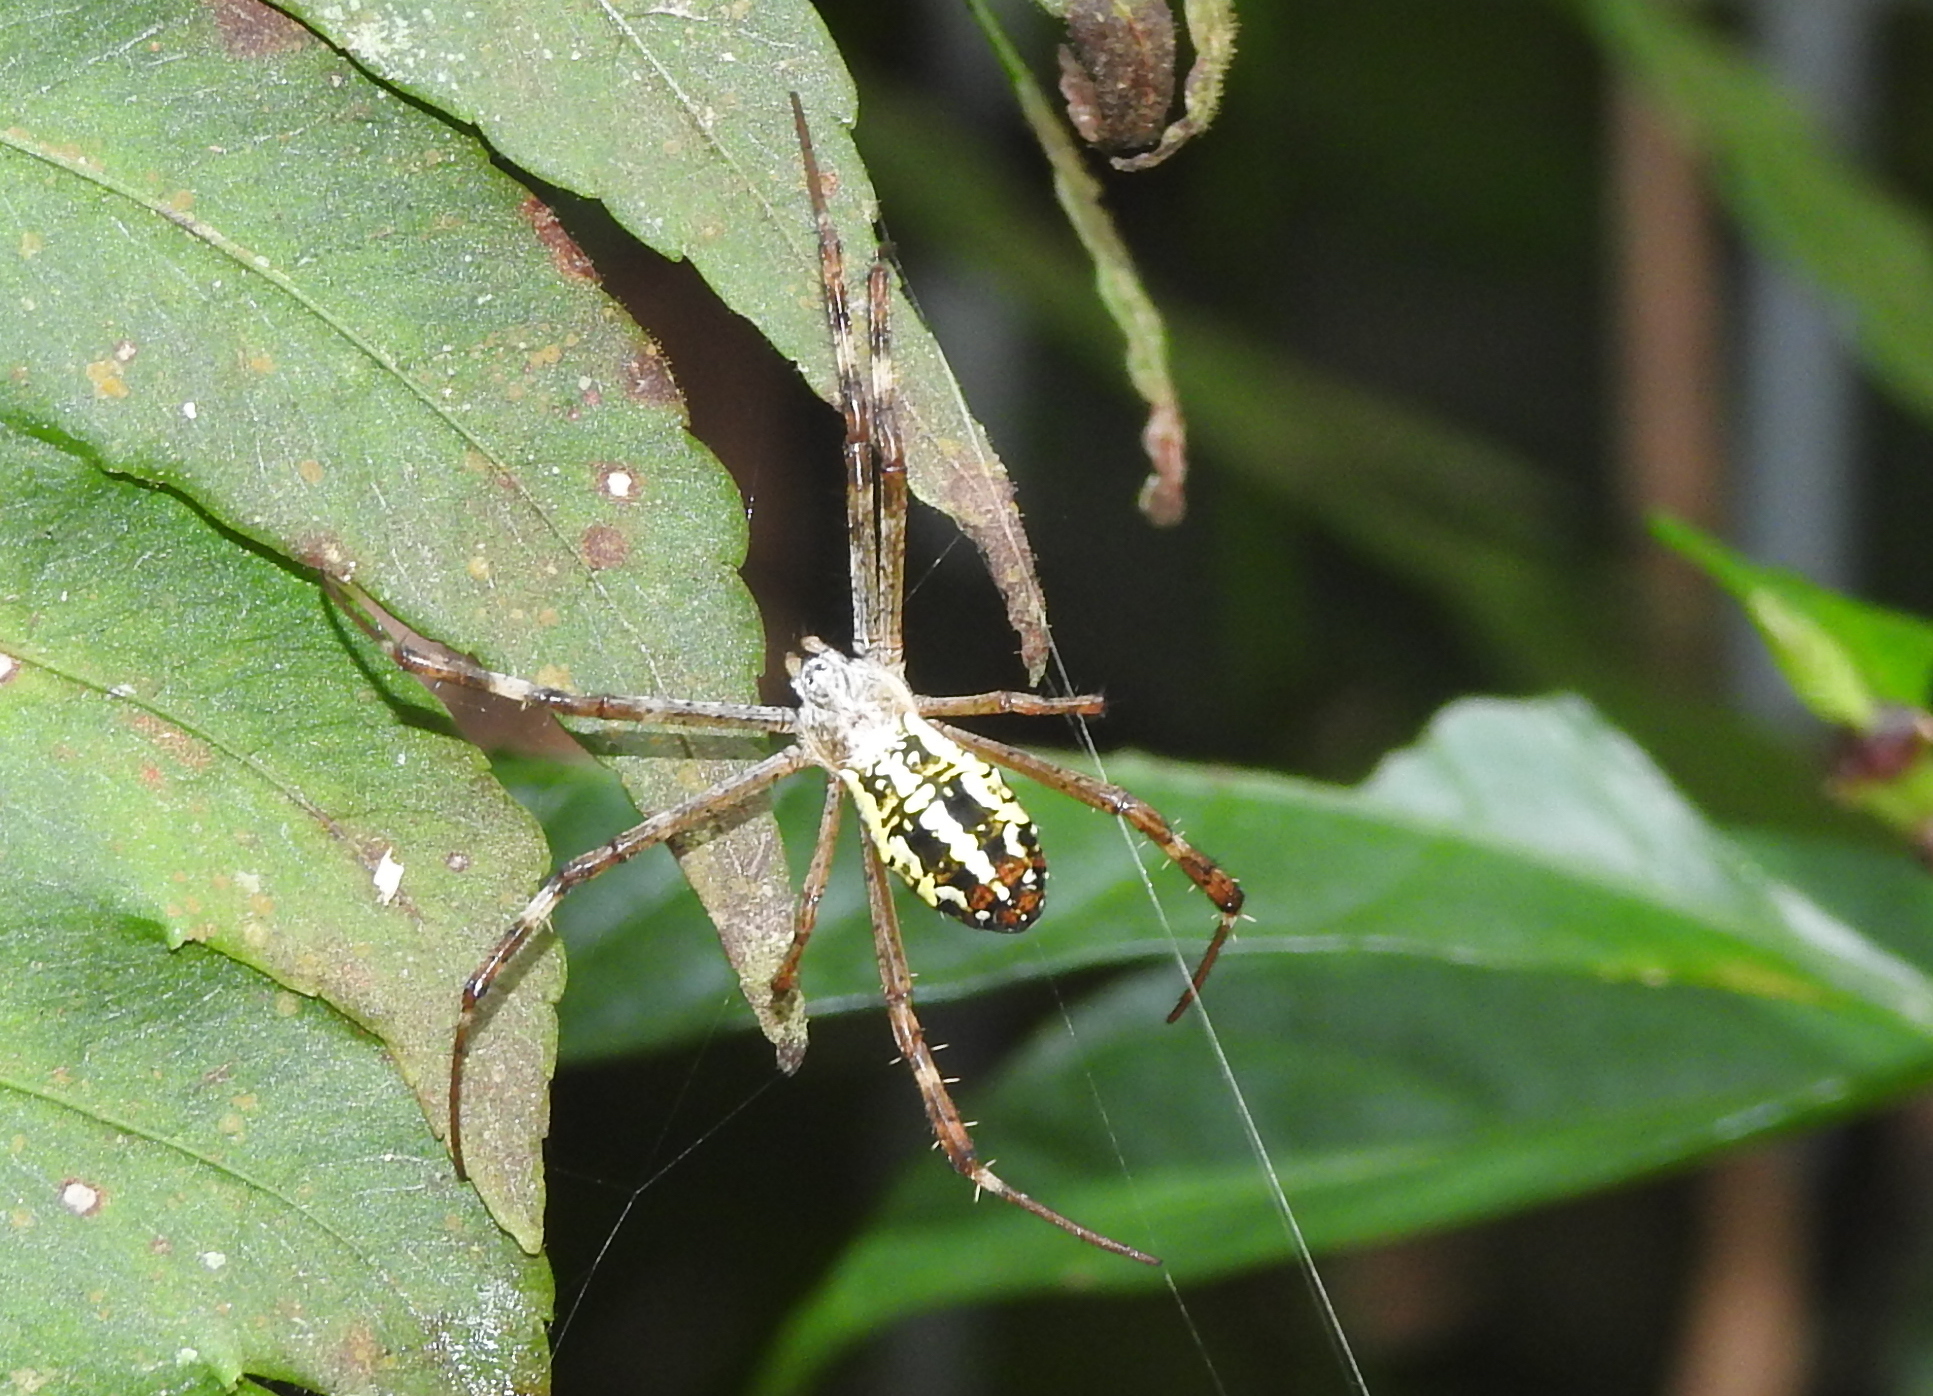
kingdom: Animalia
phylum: Arthropoda
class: Arachnida
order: Araneae
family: Araneidae
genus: Argiope
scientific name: Argiope dang
